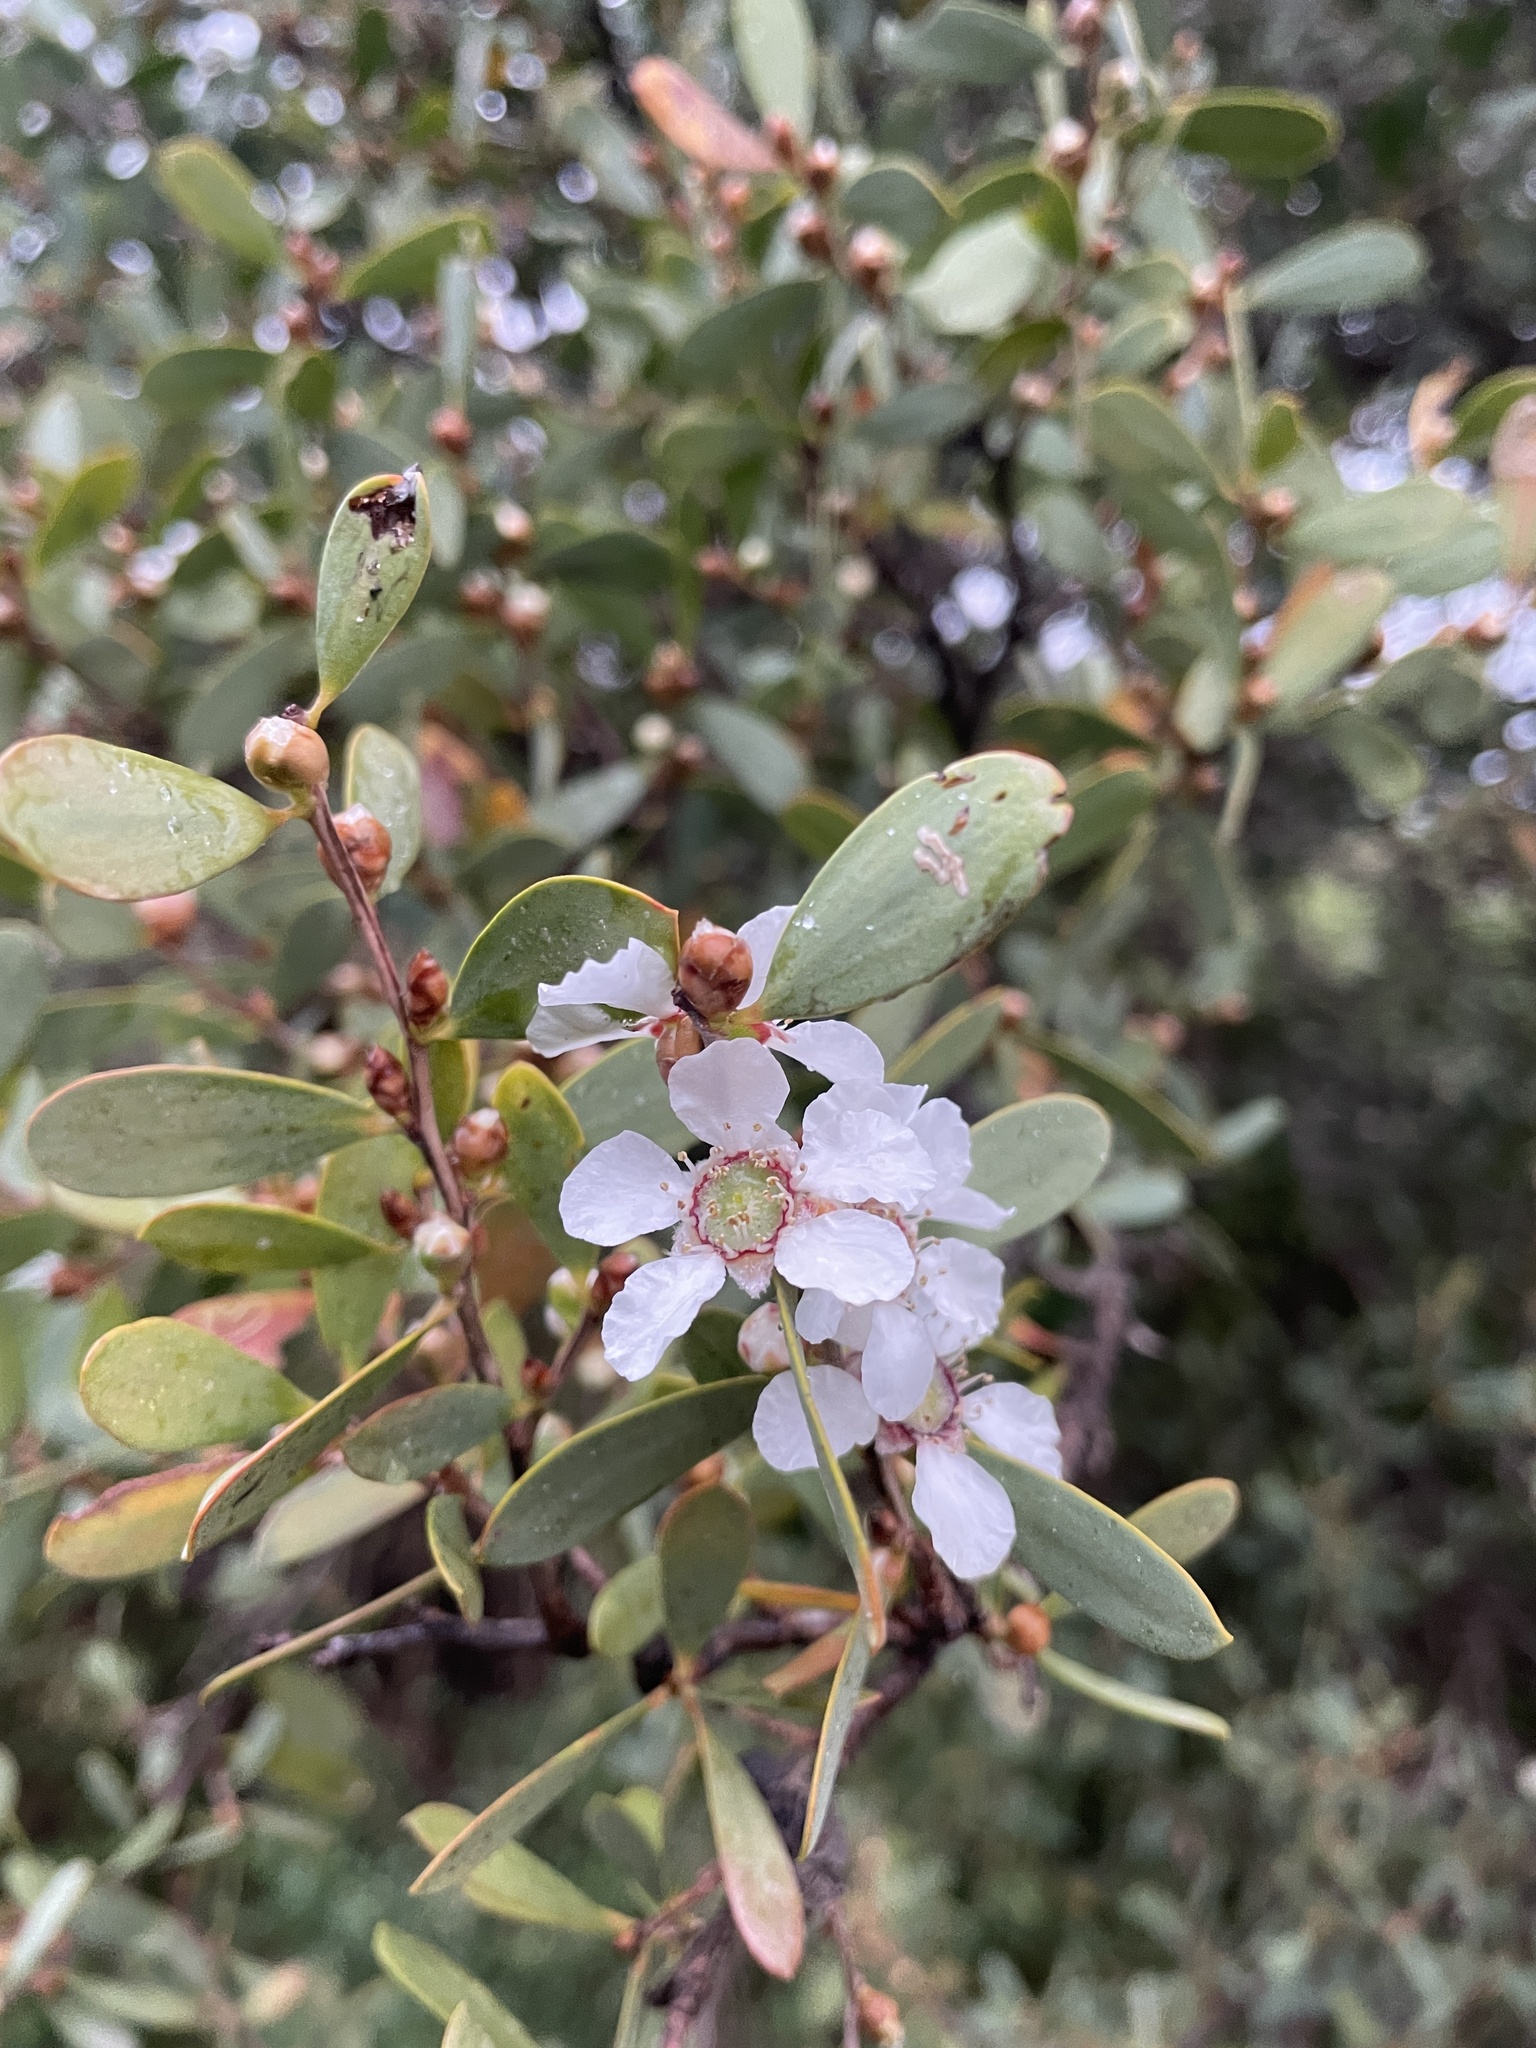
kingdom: Plantae
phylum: Tracheophyta
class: Magnoliopsida
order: Myrtales
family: Myrtaceae
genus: Leptospermum
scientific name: Leptospermum laevigatum
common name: Australian teatree
